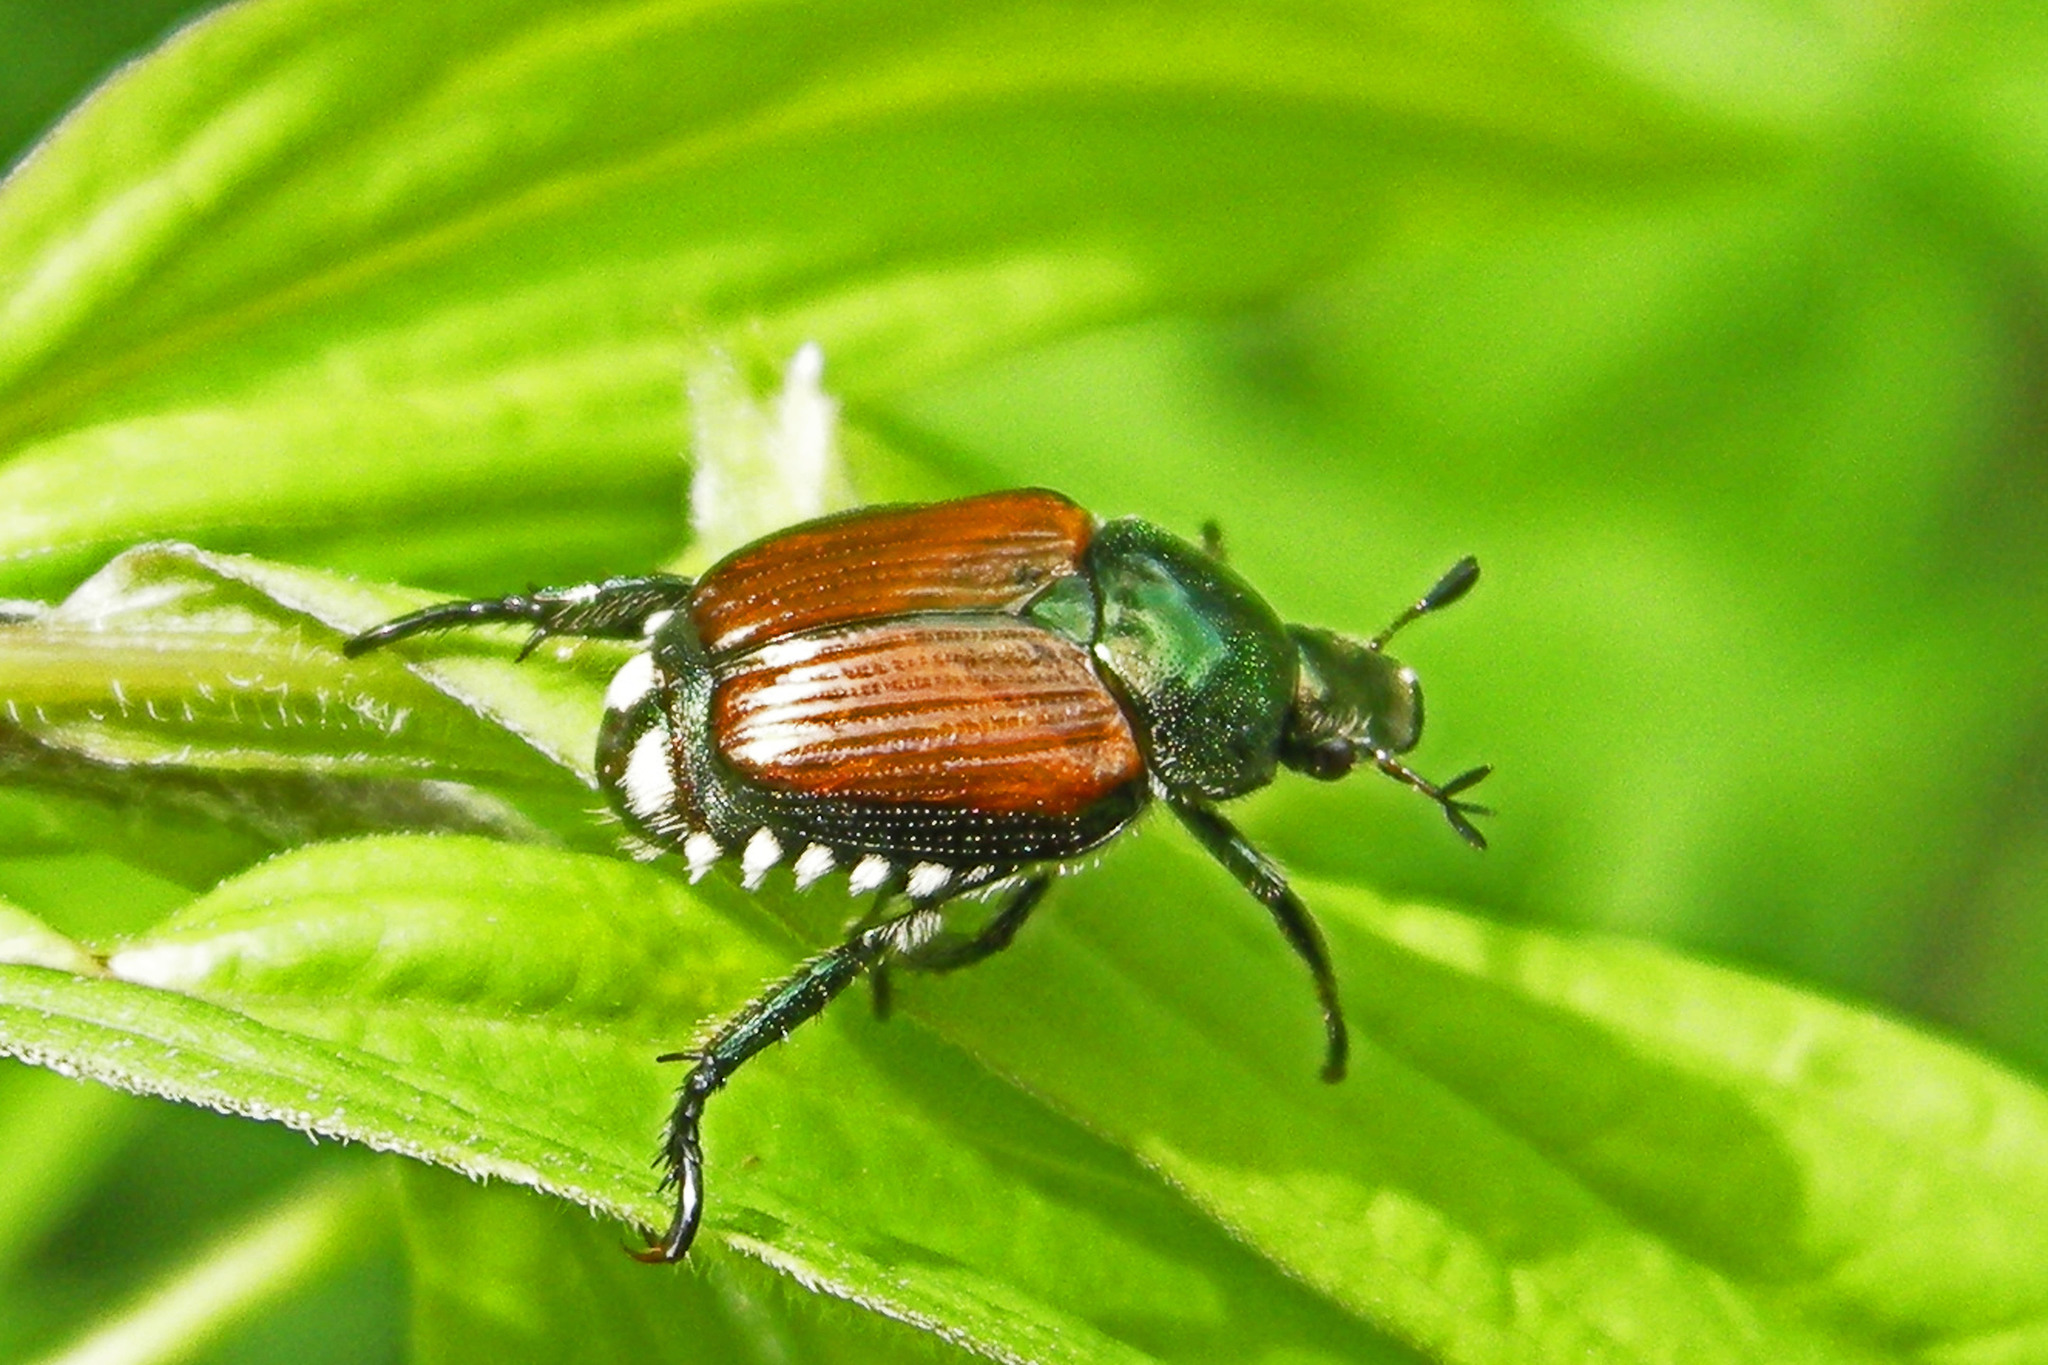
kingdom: Animalia
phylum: Arthropoda
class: Insecta
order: Coleoptera
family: Scarabaeidae
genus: Popillia
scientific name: Popillia japonica
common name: Japanese beetle
